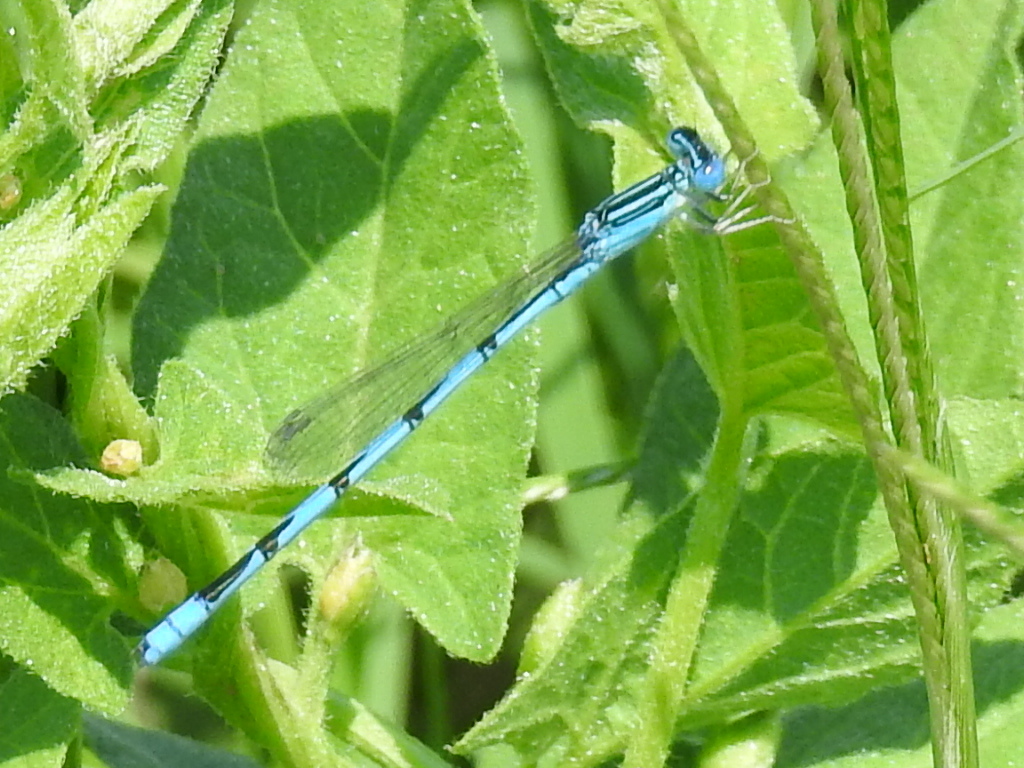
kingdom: Animalia
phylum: Arthropoda
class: Insecta
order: Odonata
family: Coenagrionidae
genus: Enallagma
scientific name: Enallagma basidens
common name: Double-striped bluet
